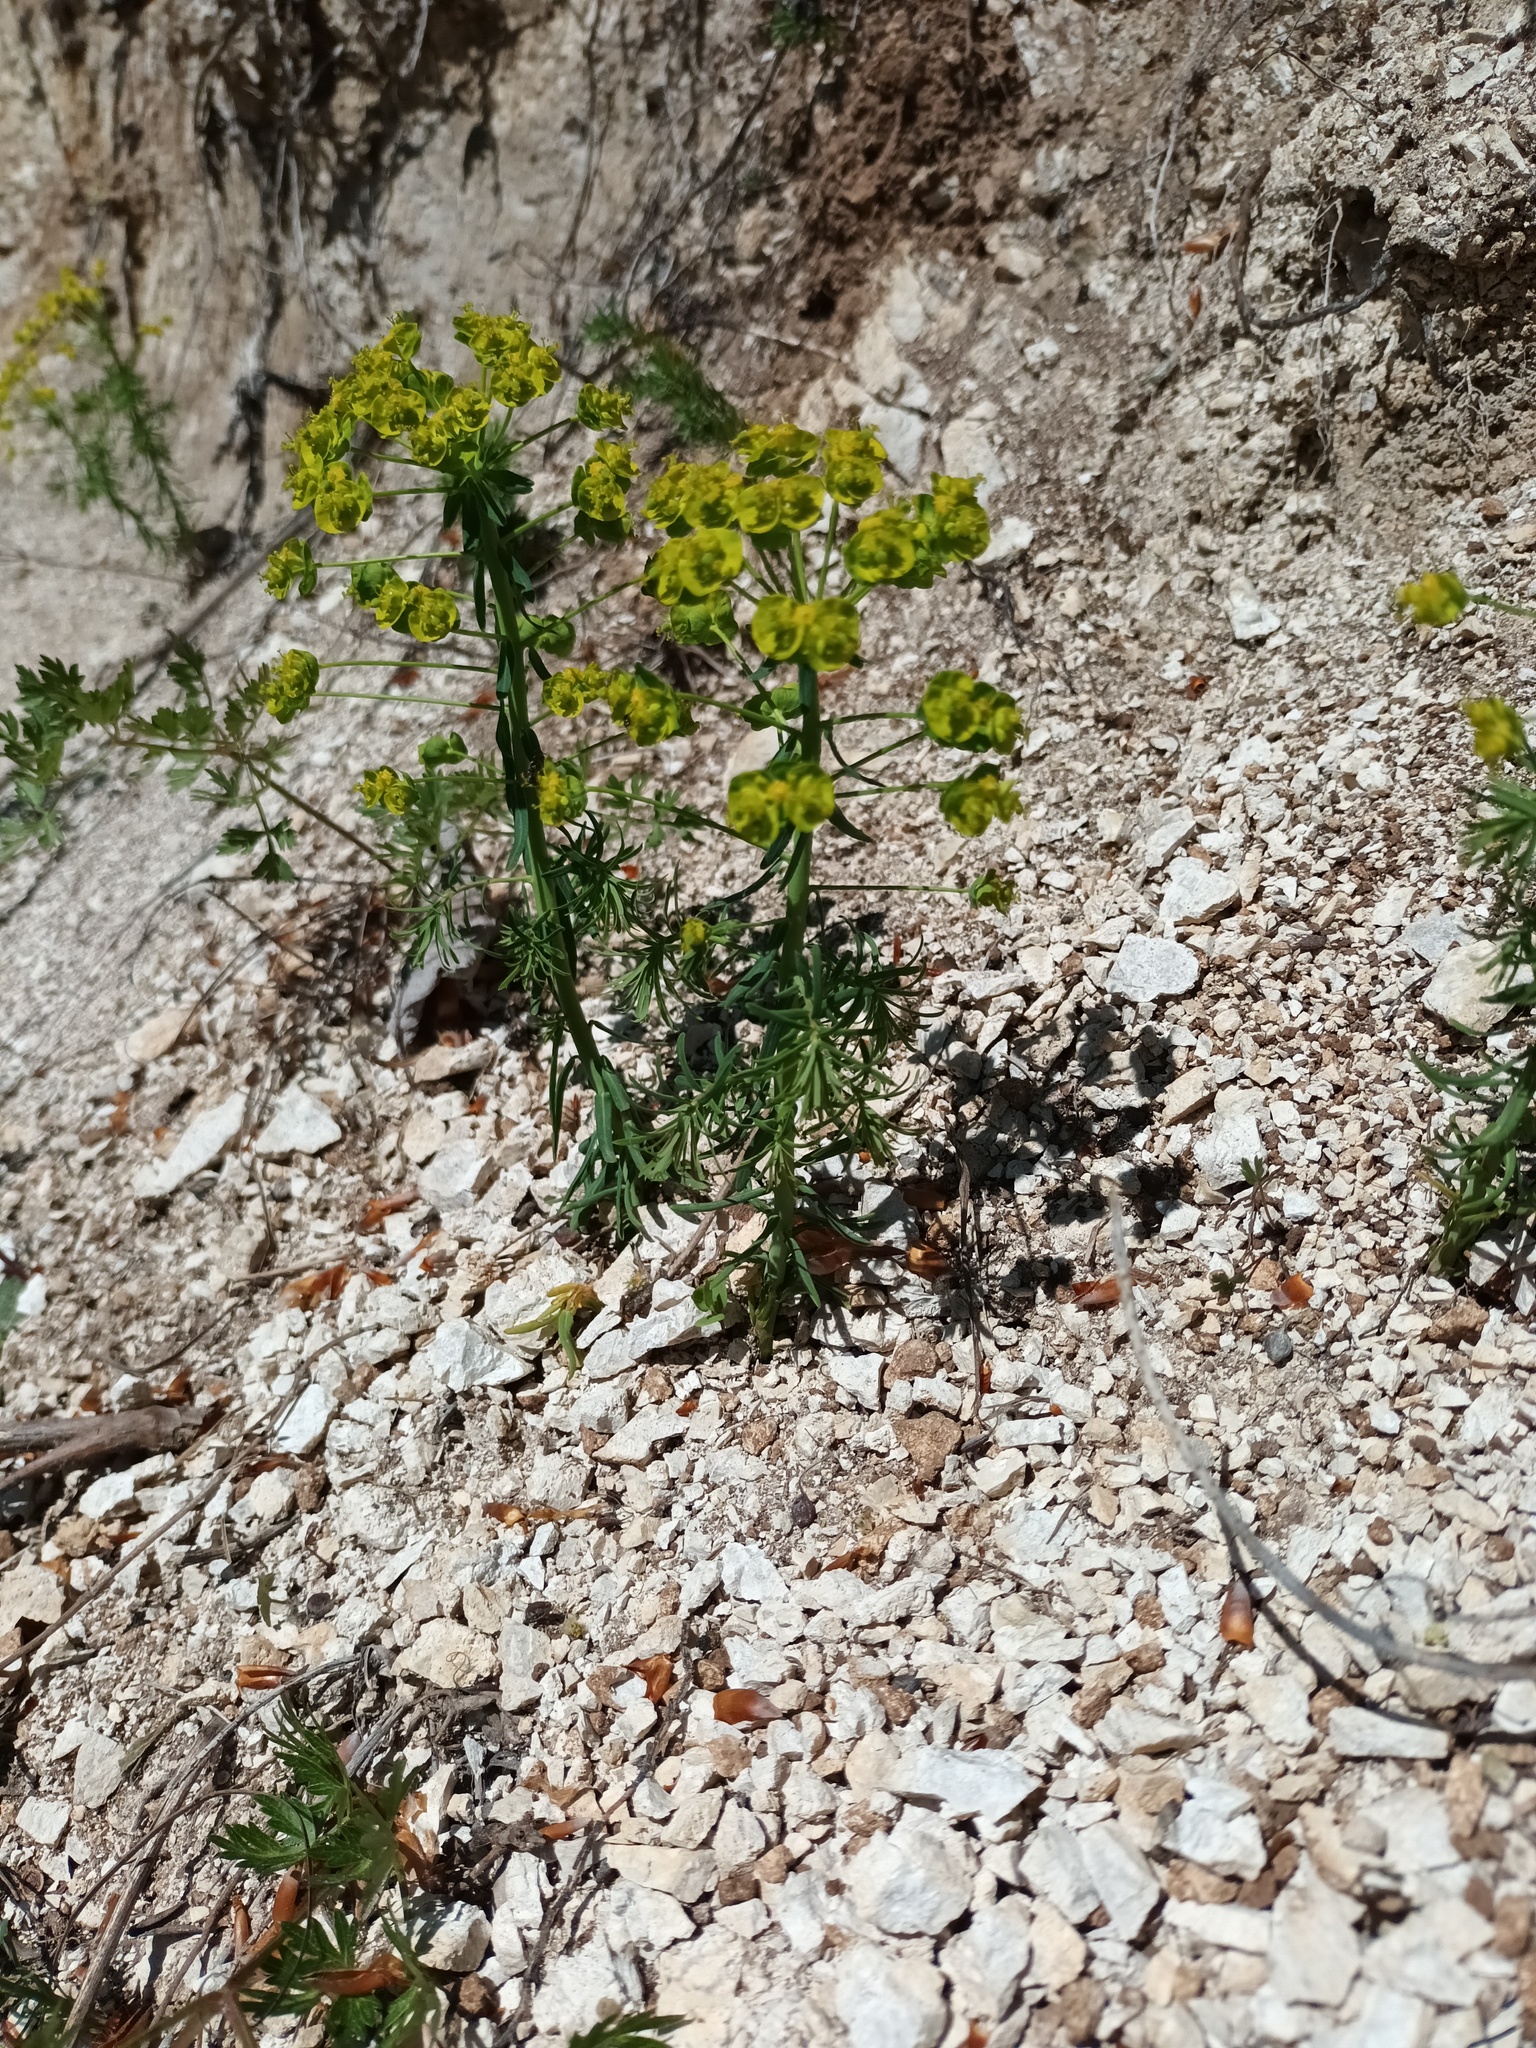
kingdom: Plantae
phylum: Tracheophyta
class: Magnoliopsida
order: Malpighiales
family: Euphorbiaceae
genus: Euphorbia
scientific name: Euphorbia cyparissias
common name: Cypress spurge
